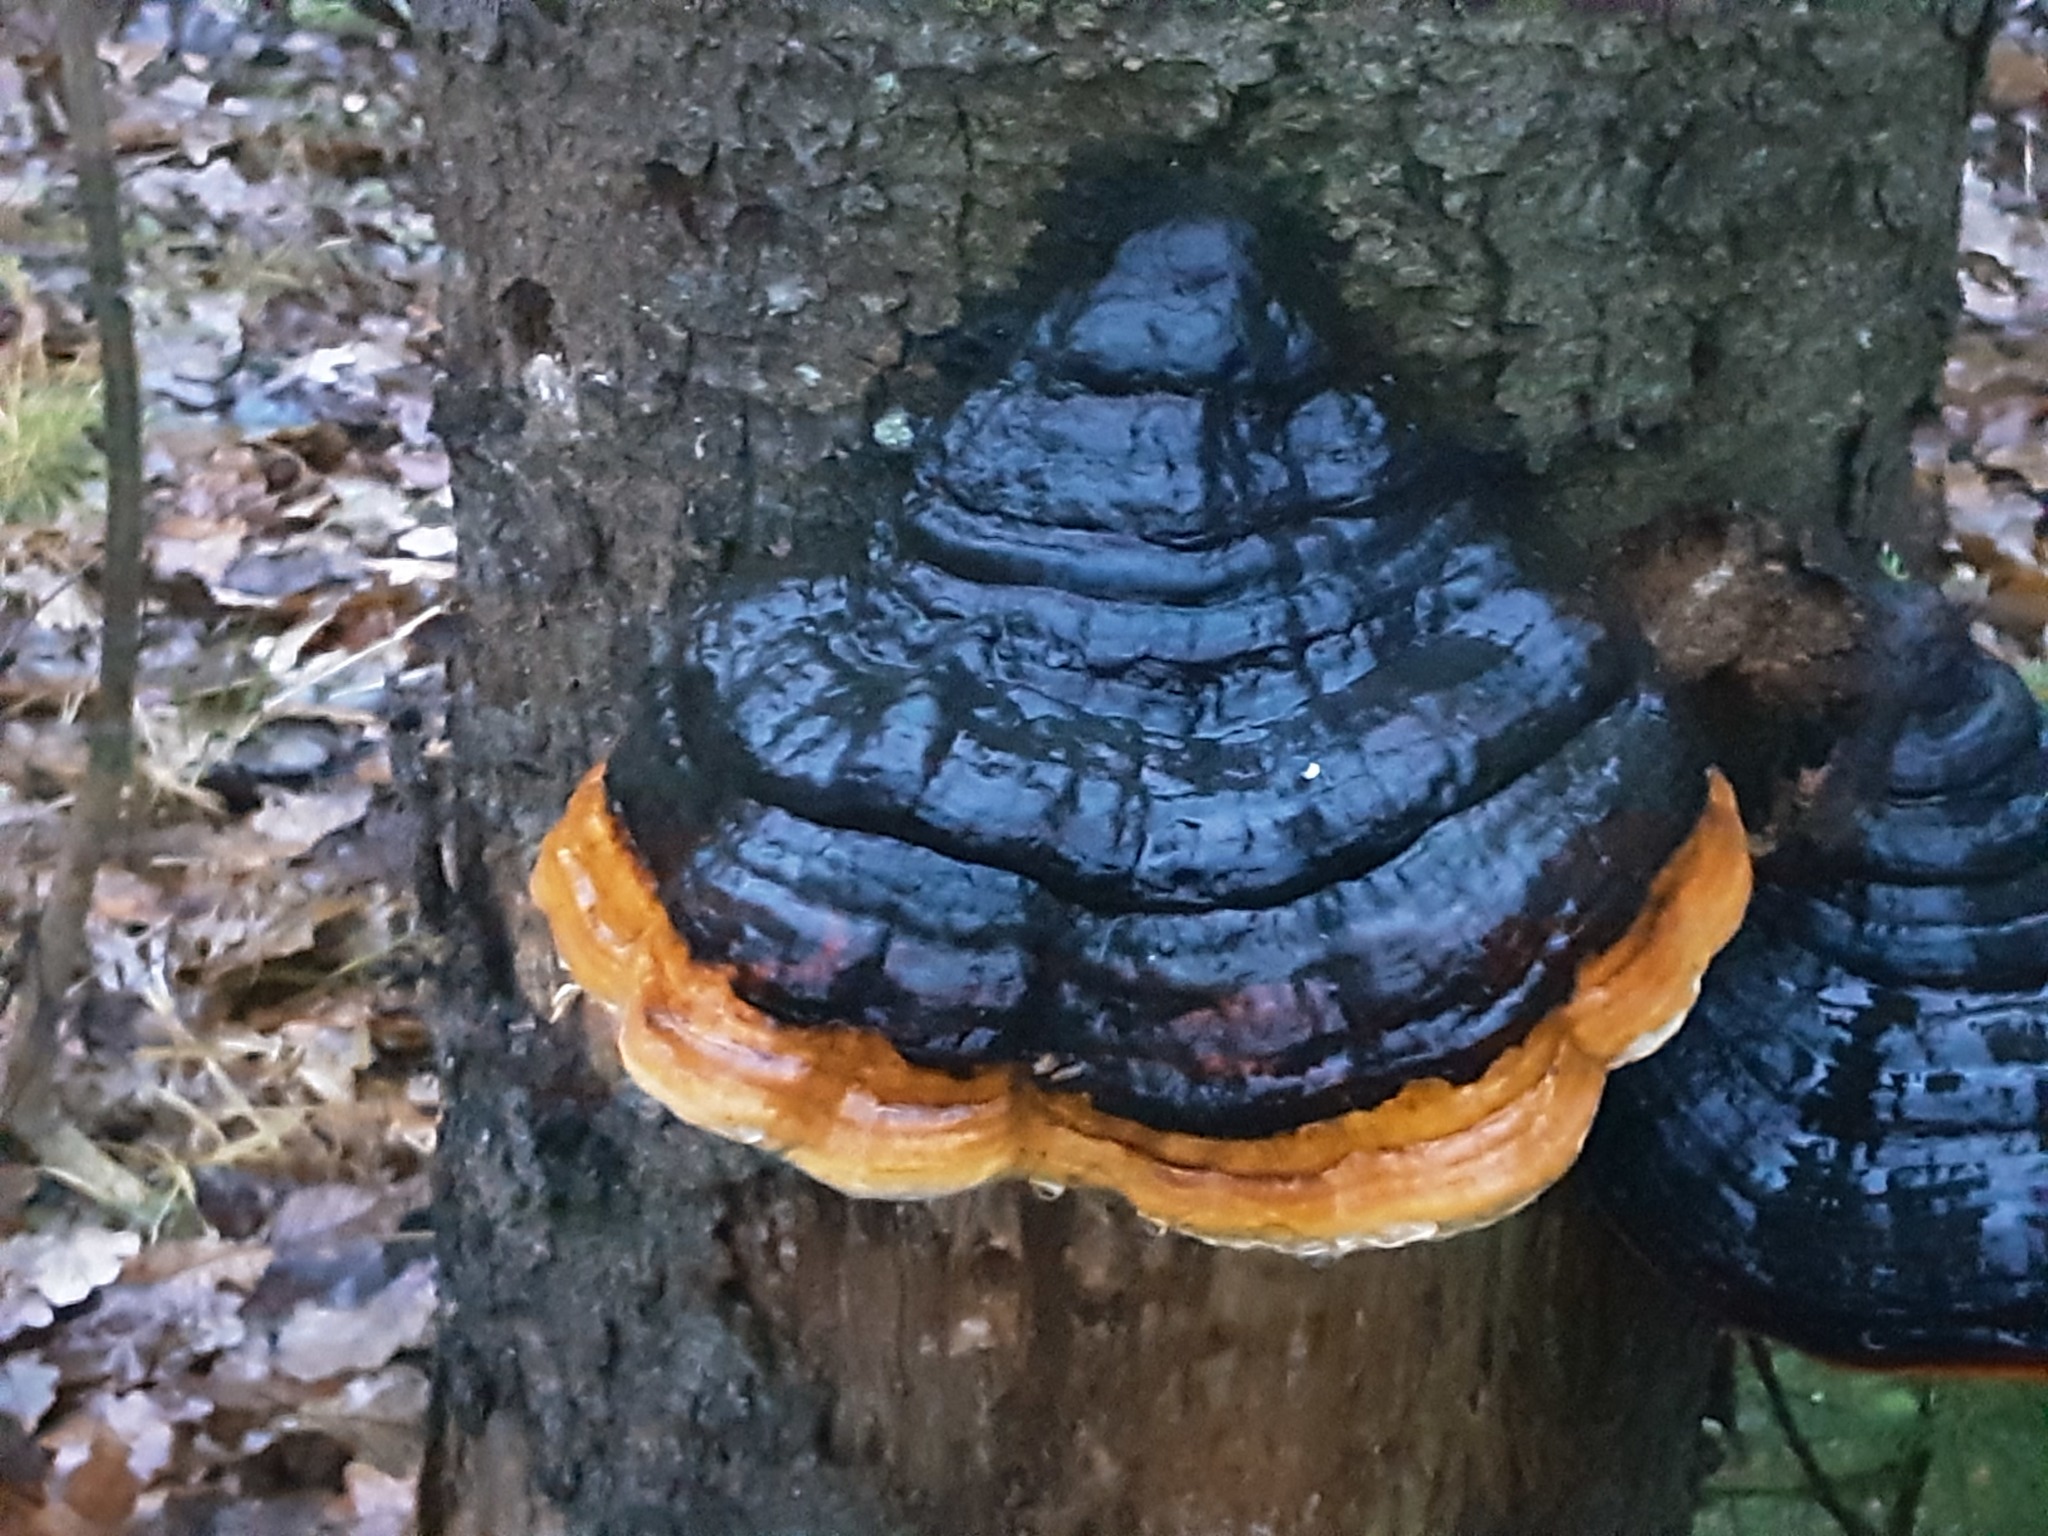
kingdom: Fungi
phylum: Basidiomycota
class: Agaricomycetes
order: Polyporales
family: Fomitopsidaceae
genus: Fomitopsis
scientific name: Fomitopsis pinicola
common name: Red-belted bracket
